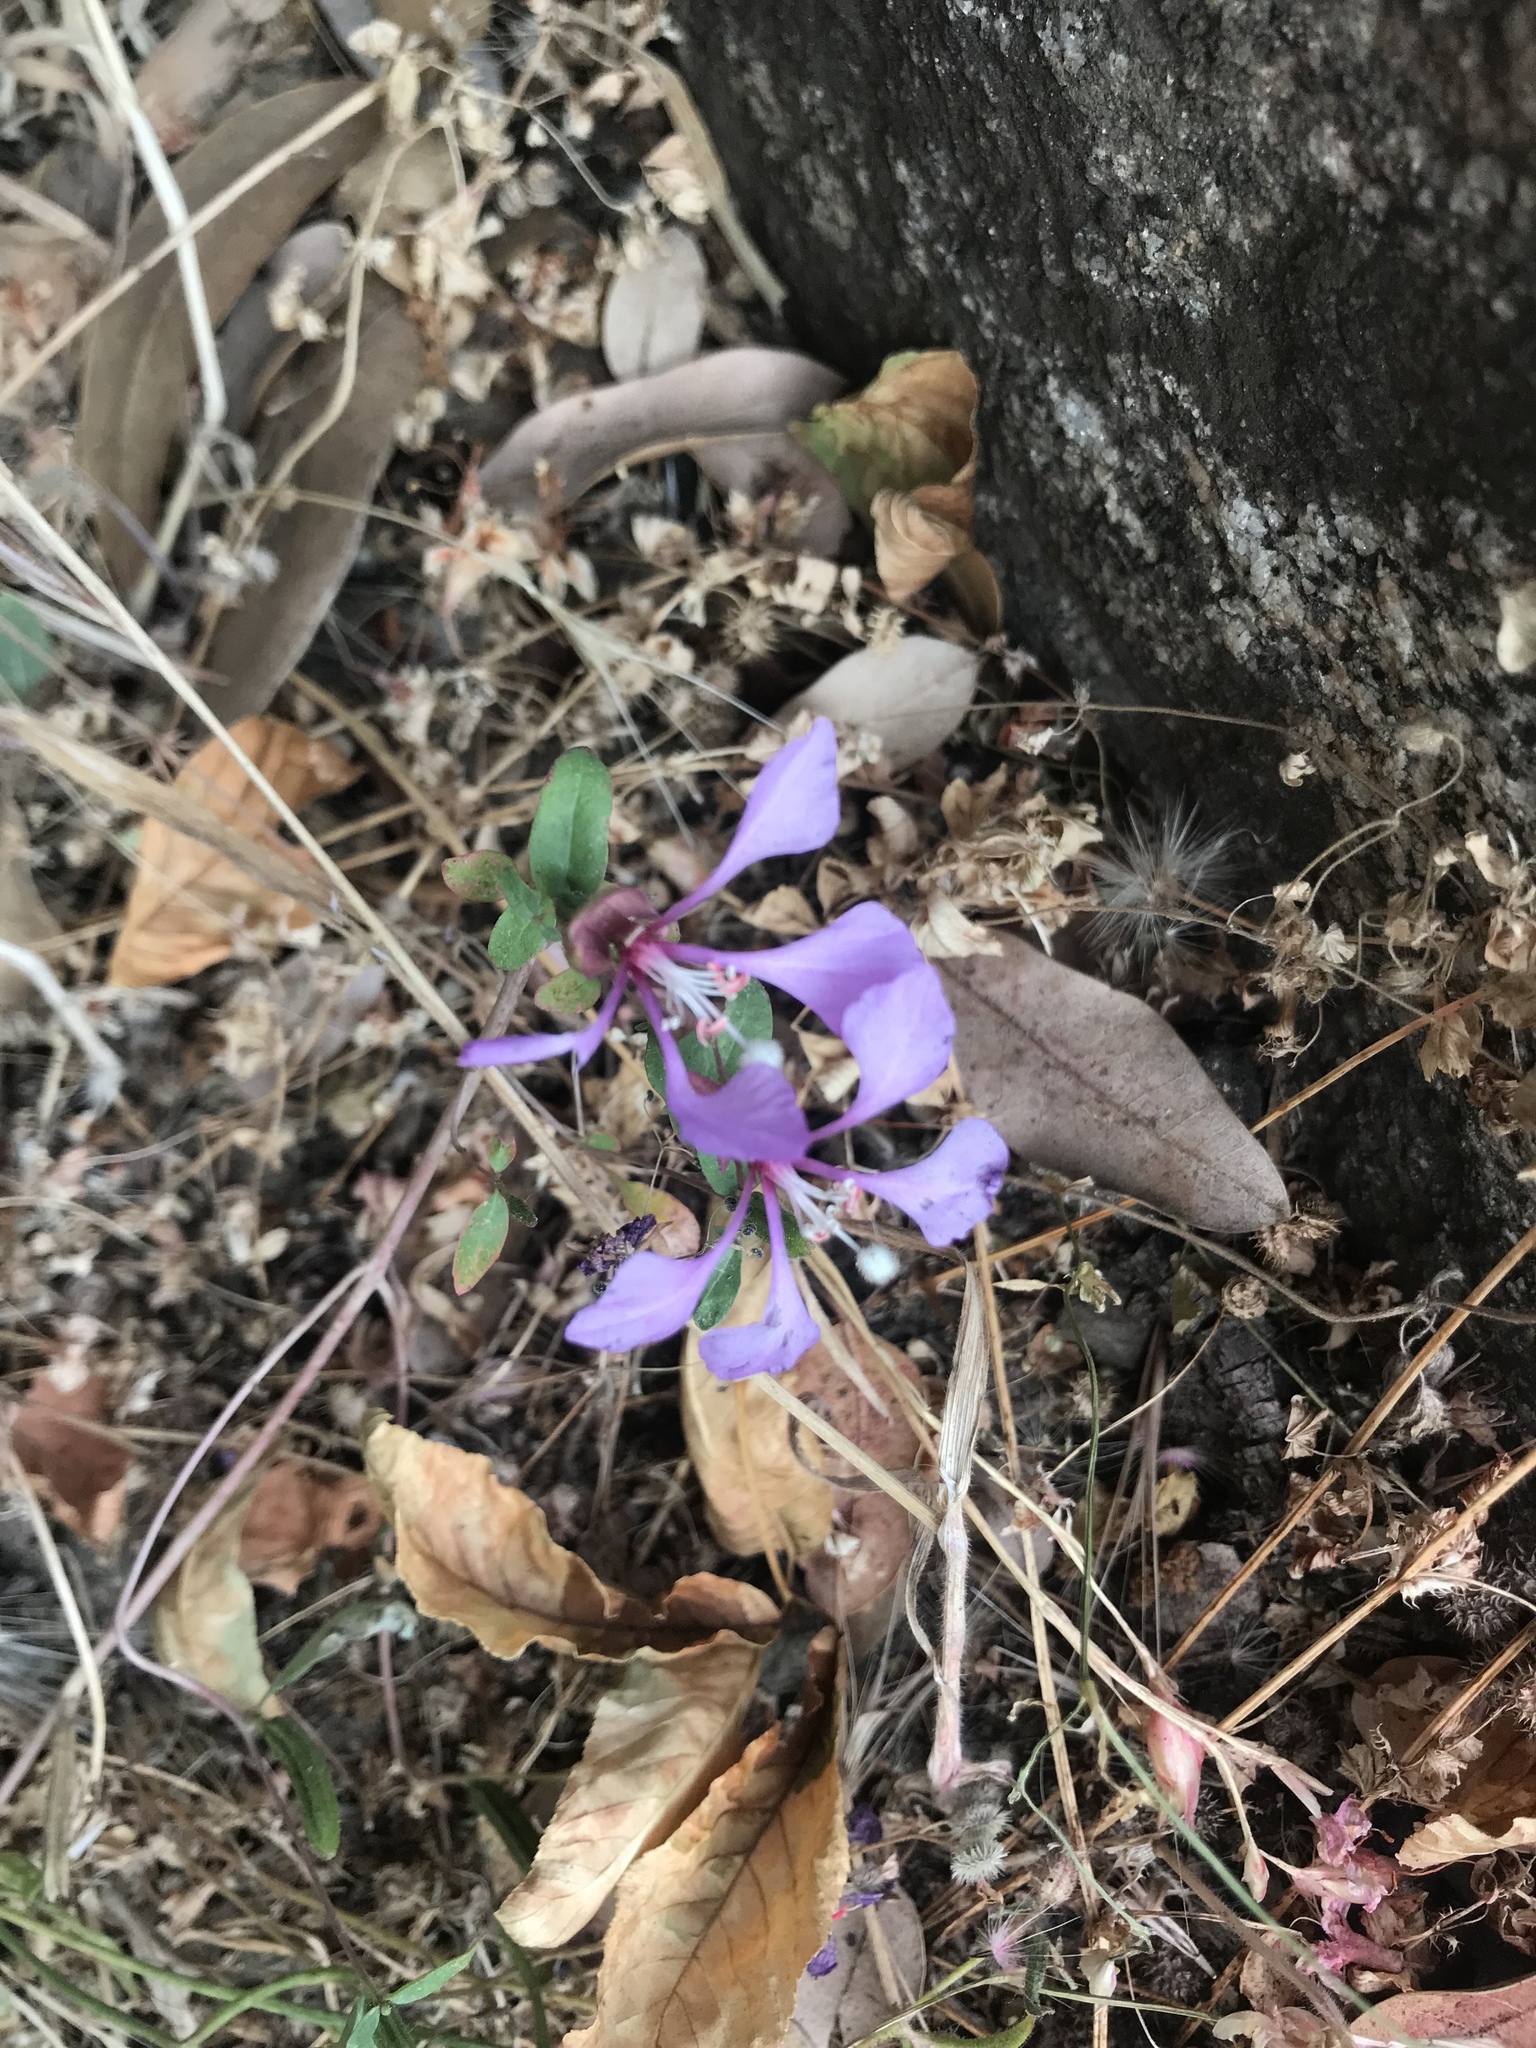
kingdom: Plantae
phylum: Tracheophyta
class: Magnoliopsida
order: Myrtales
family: Onagraceae
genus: Clarkia
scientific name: Clarkia unguiculata
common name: Clarkia
